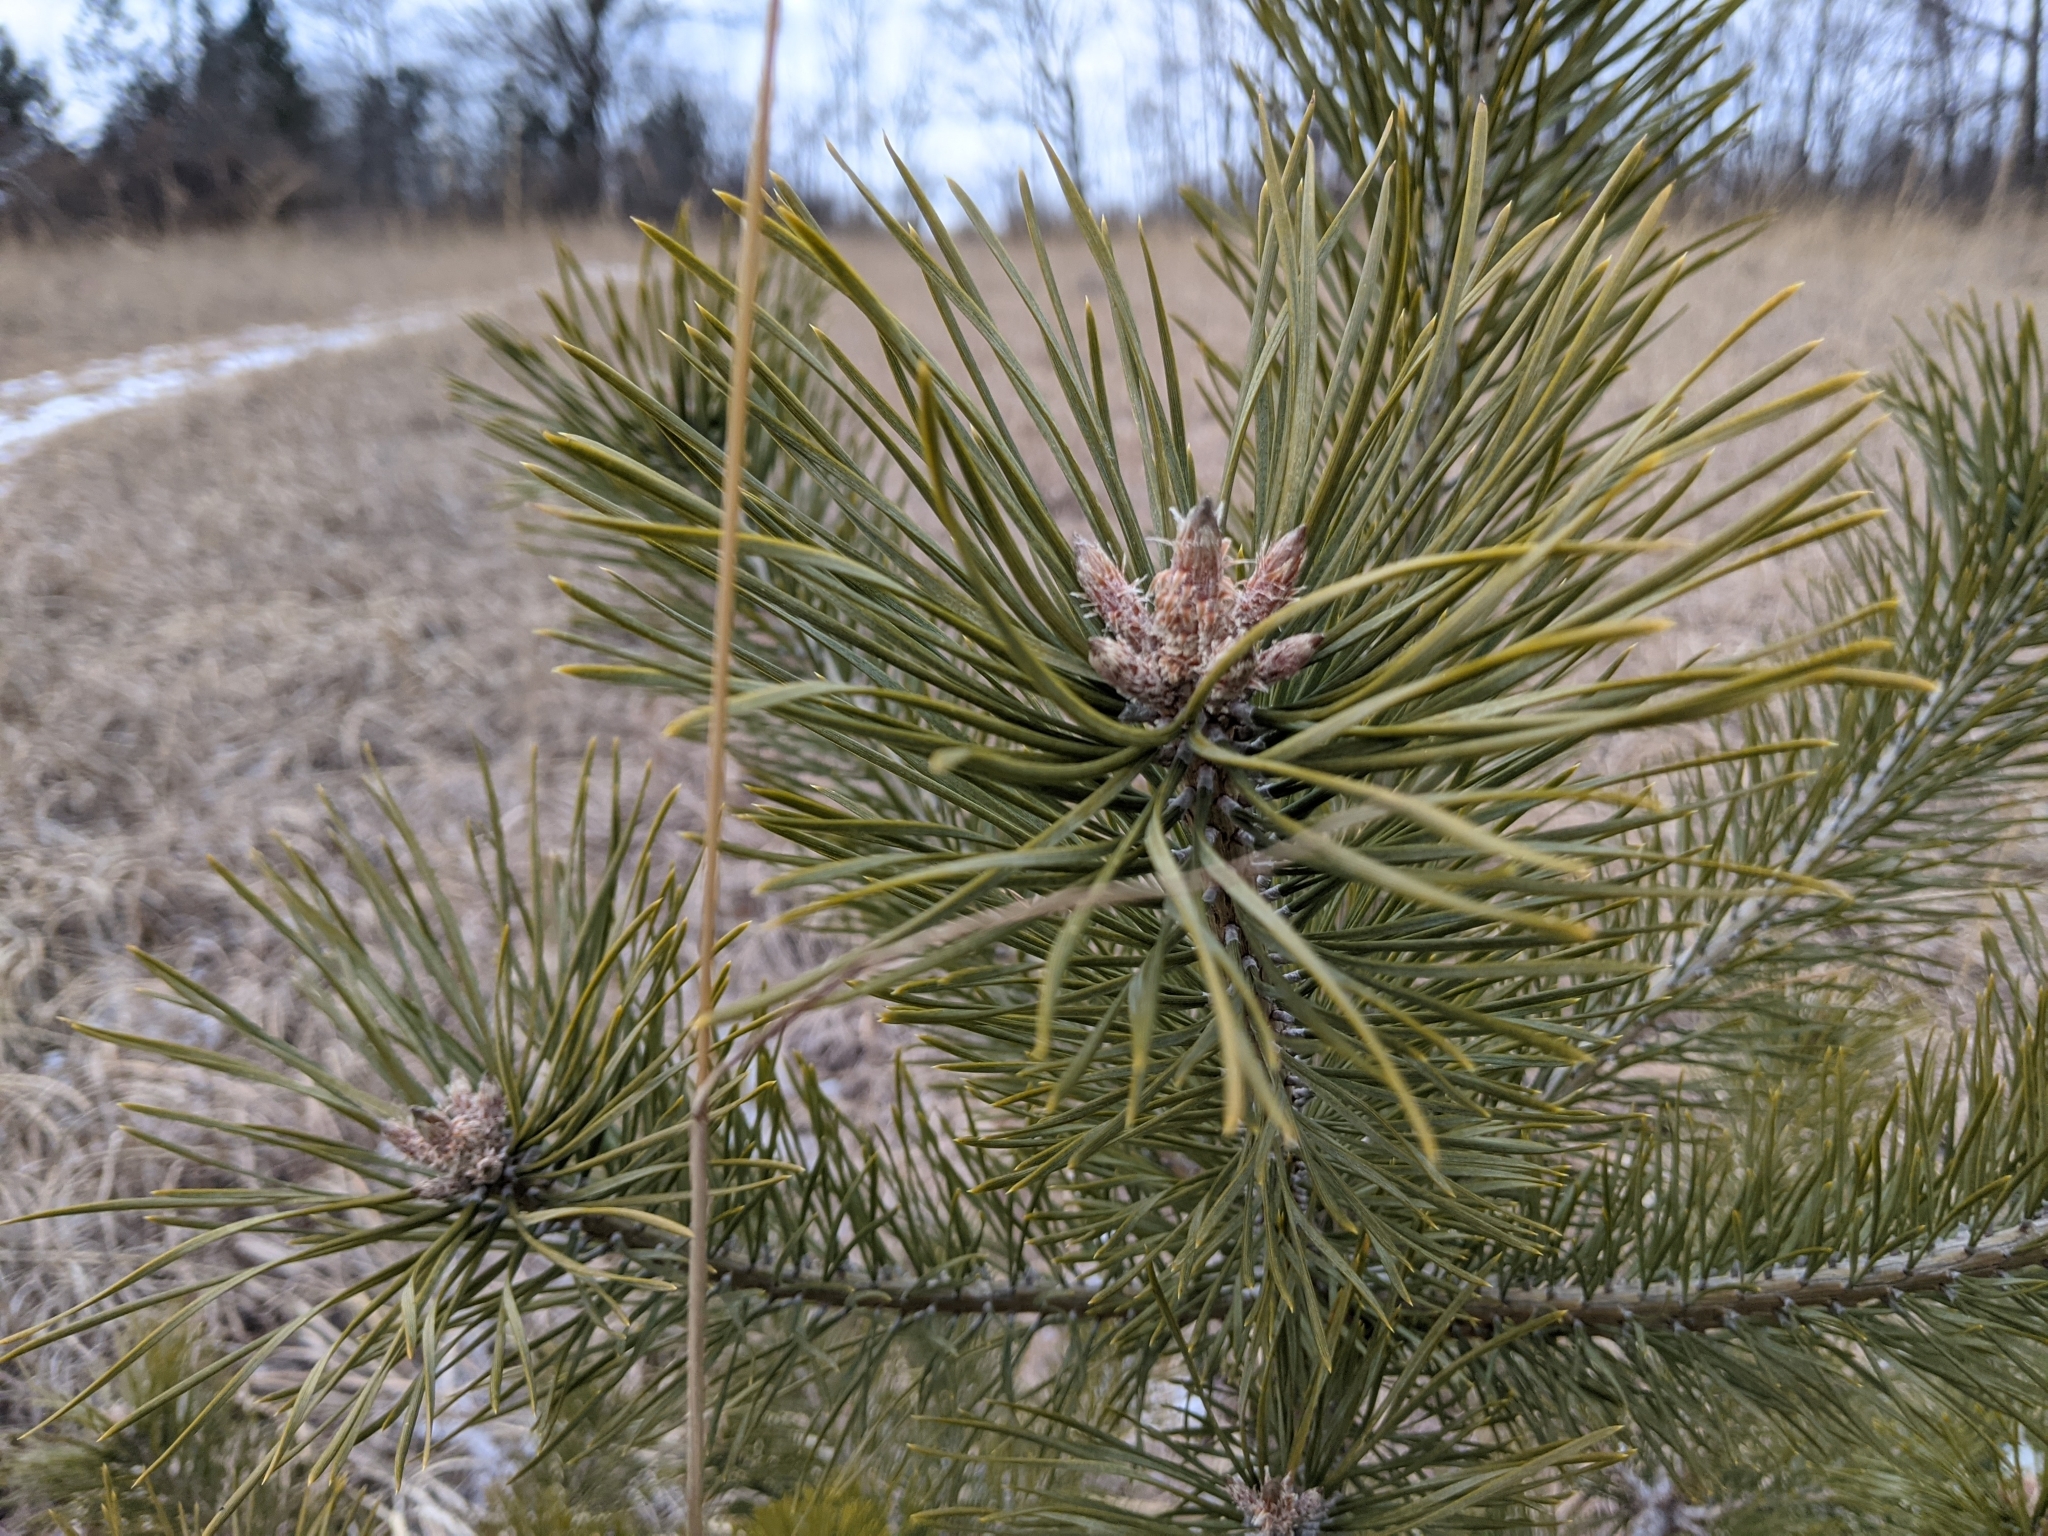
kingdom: Plantae
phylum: Tracheophyta
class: Pinopsida
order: Pinales
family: Pinaceae
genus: Pinus
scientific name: Pinus sylvestris
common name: Scots pine
